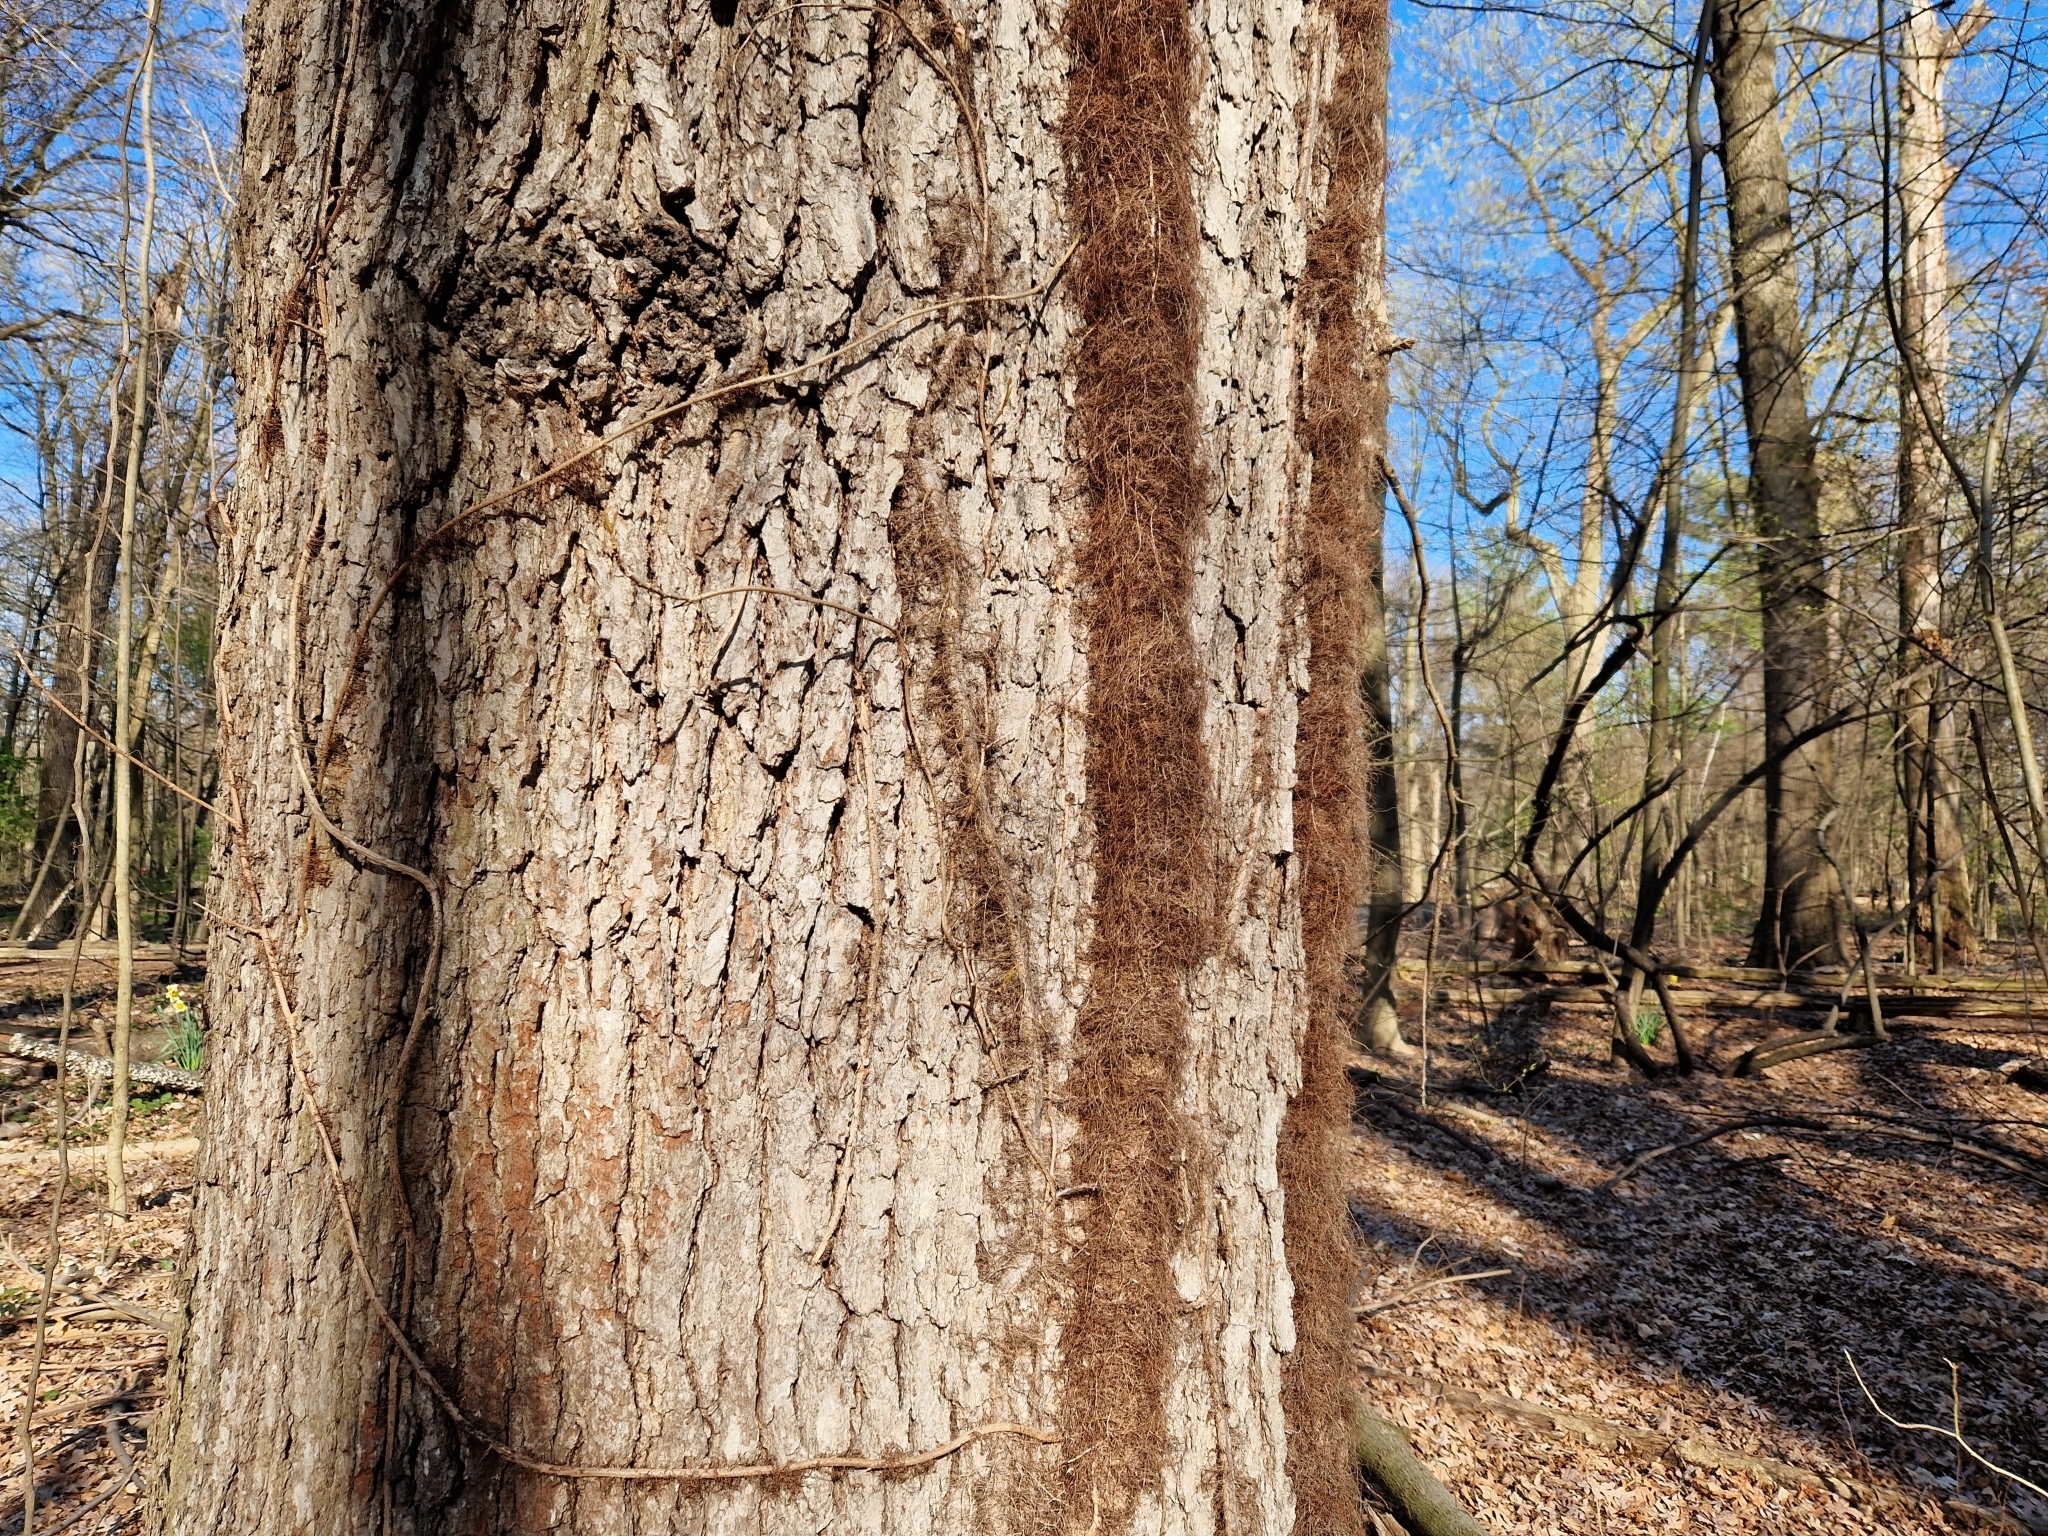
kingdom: Plantae
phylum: Tracheophyta
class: Magnoliopsida
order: Sapindales
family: Anacardiaceae
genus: Toxicodendron
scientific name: Toxicodendron radicans
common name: Poison ivy
